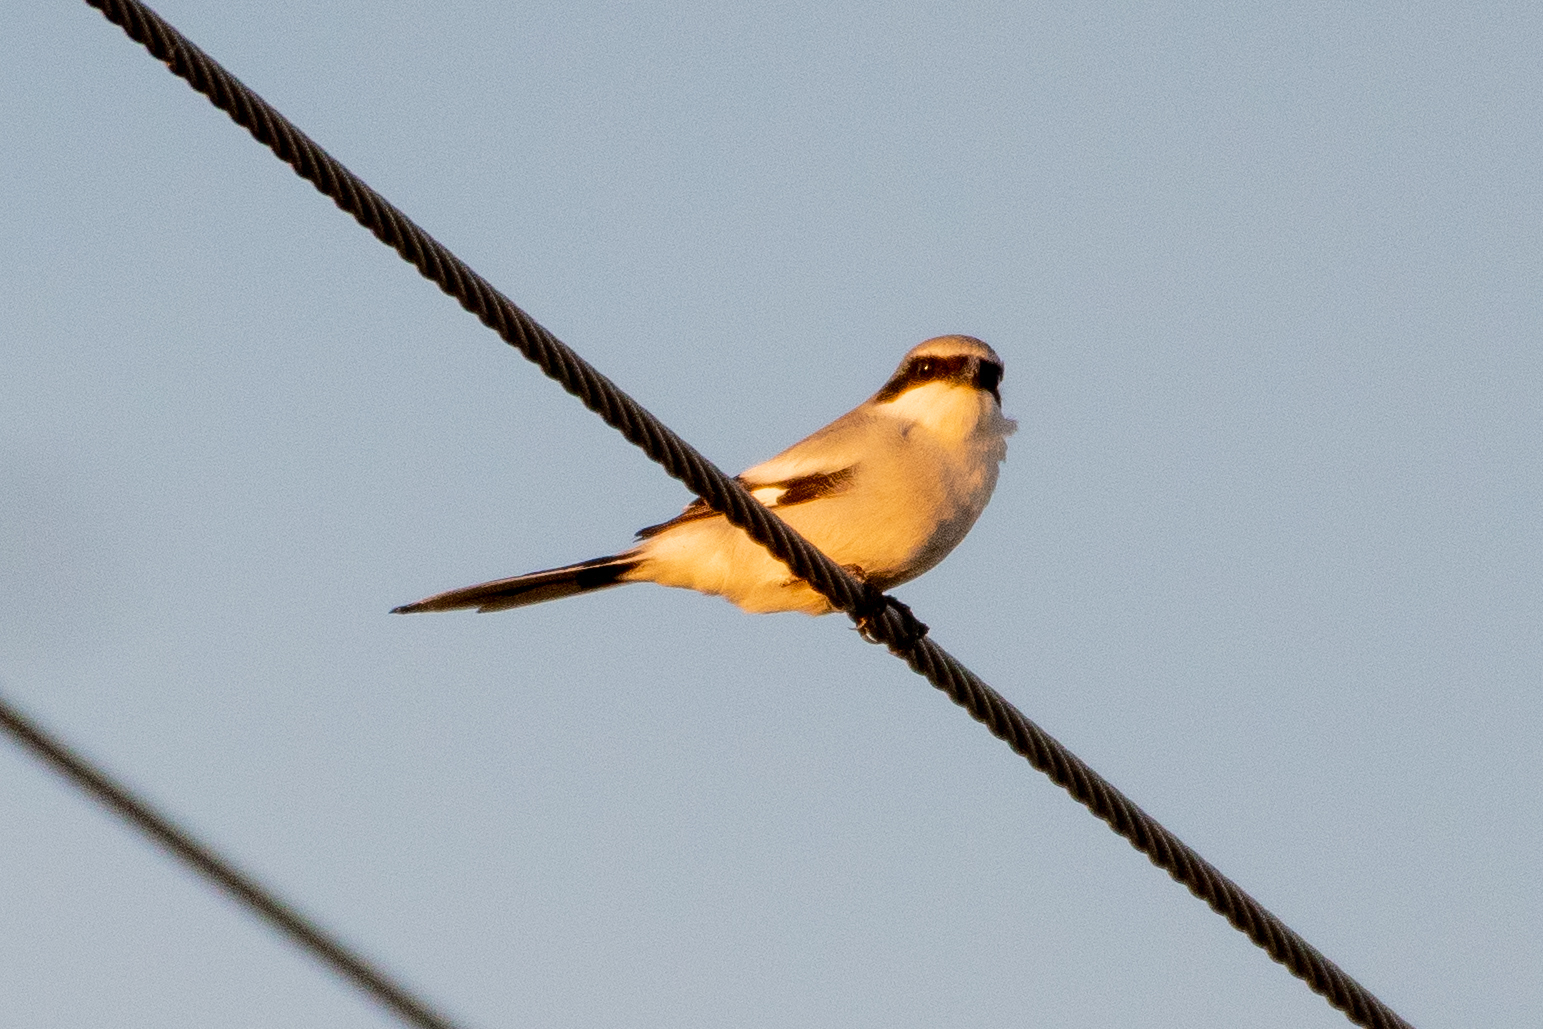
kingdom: Animalia
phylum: Chordata
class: Aves
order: Passeriformes
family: Laniidae
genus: Lanius
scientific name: Lanius ludovicianus
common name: Loggerhead shrike
